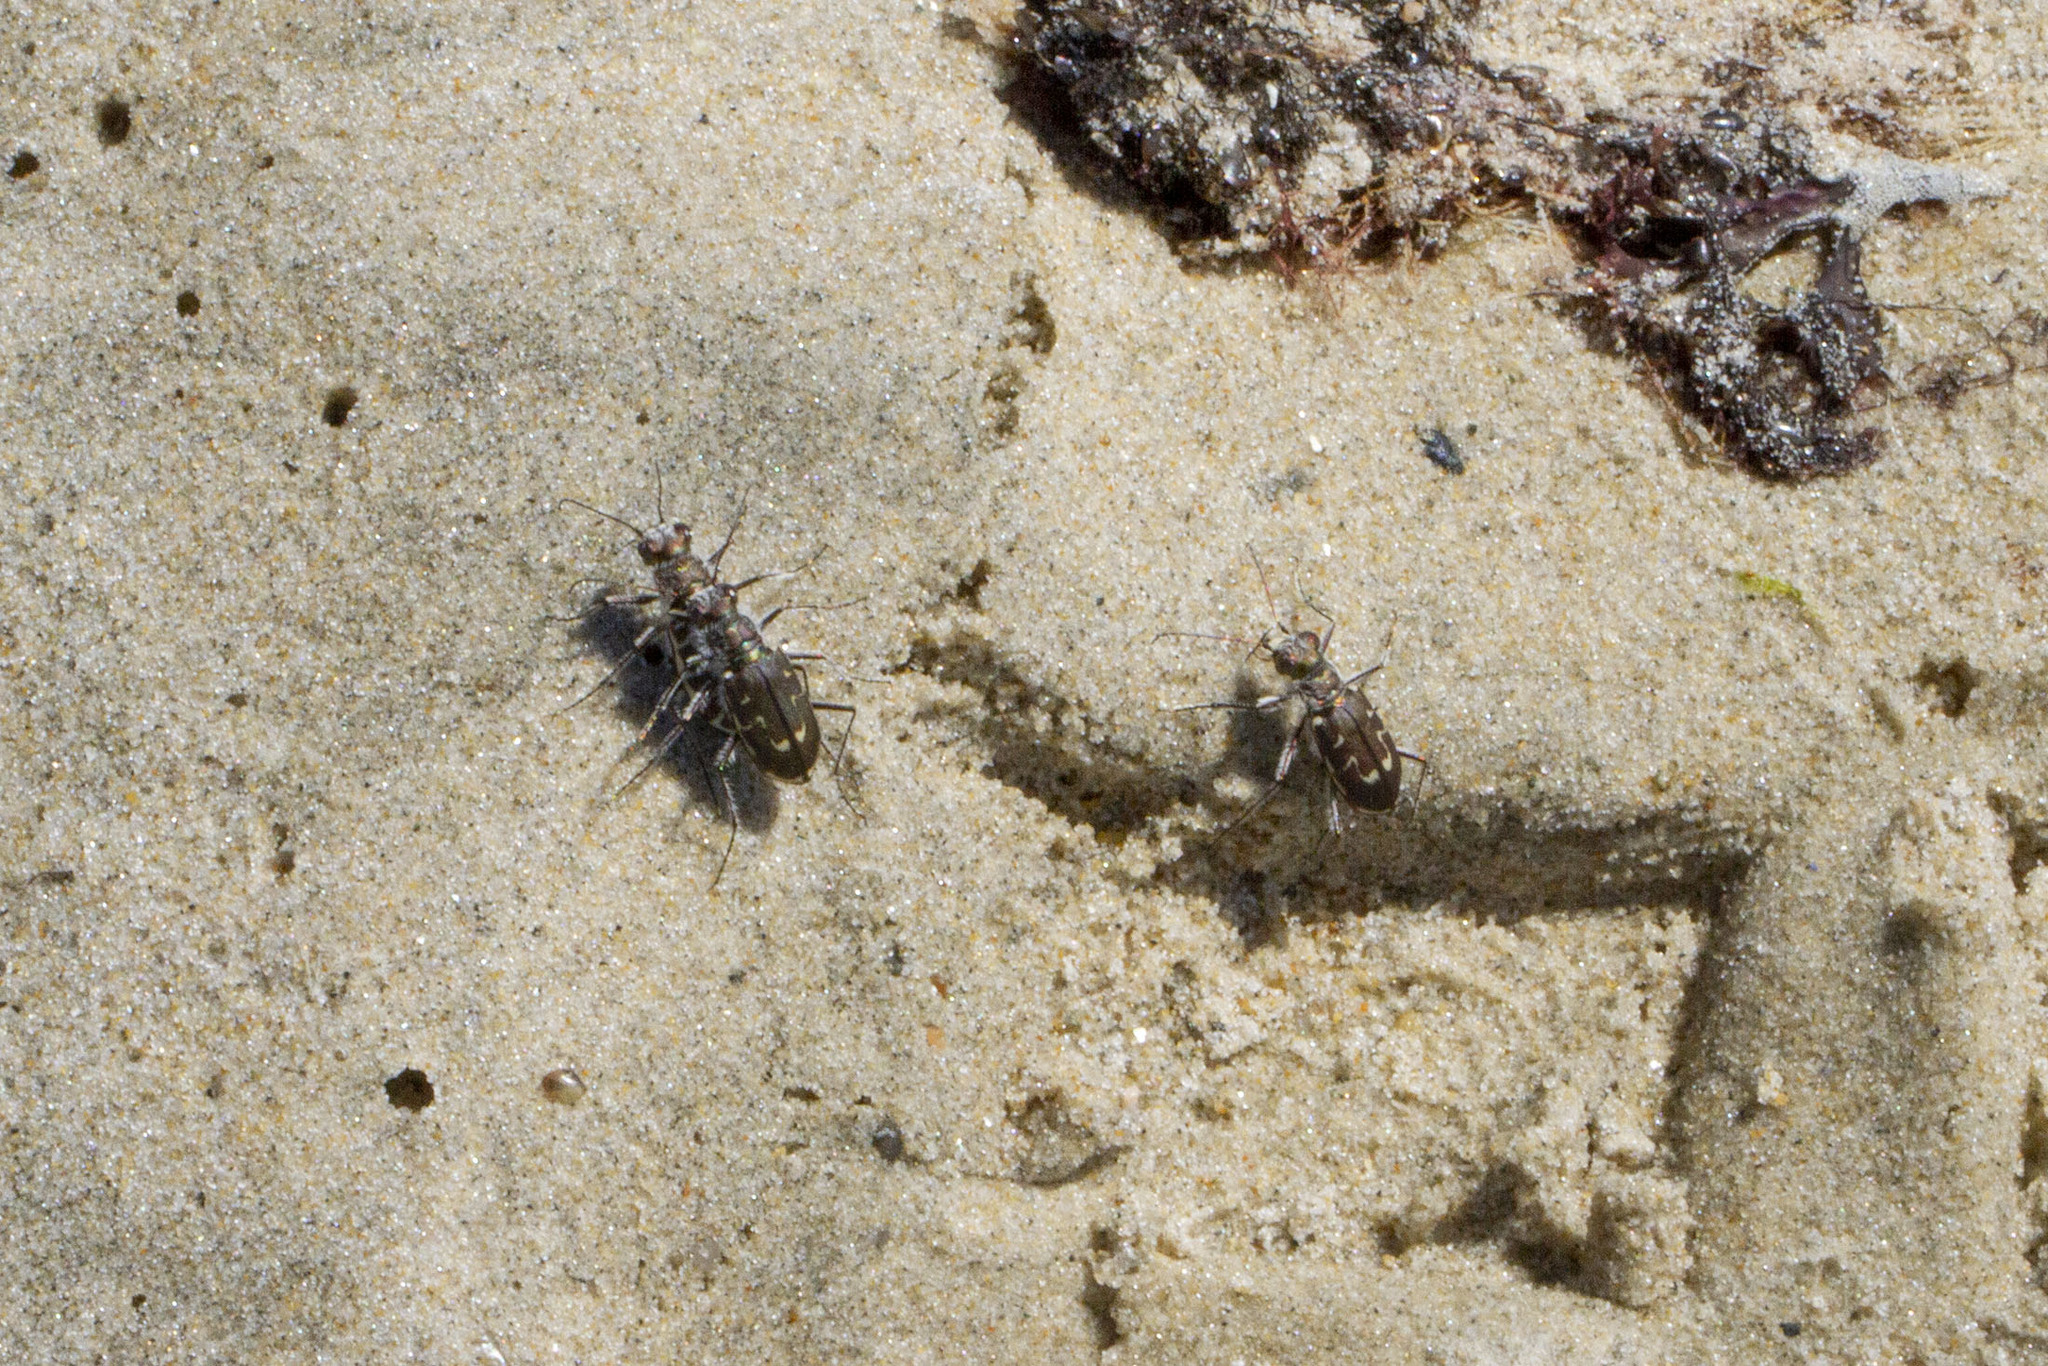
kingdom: Animalia
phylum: Arthropoda
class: Insecta
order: Coleoptera
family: Carabidae
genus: Cicindela
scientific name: Cicindela hirticollis
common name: Hairy-necked tiger beetle
